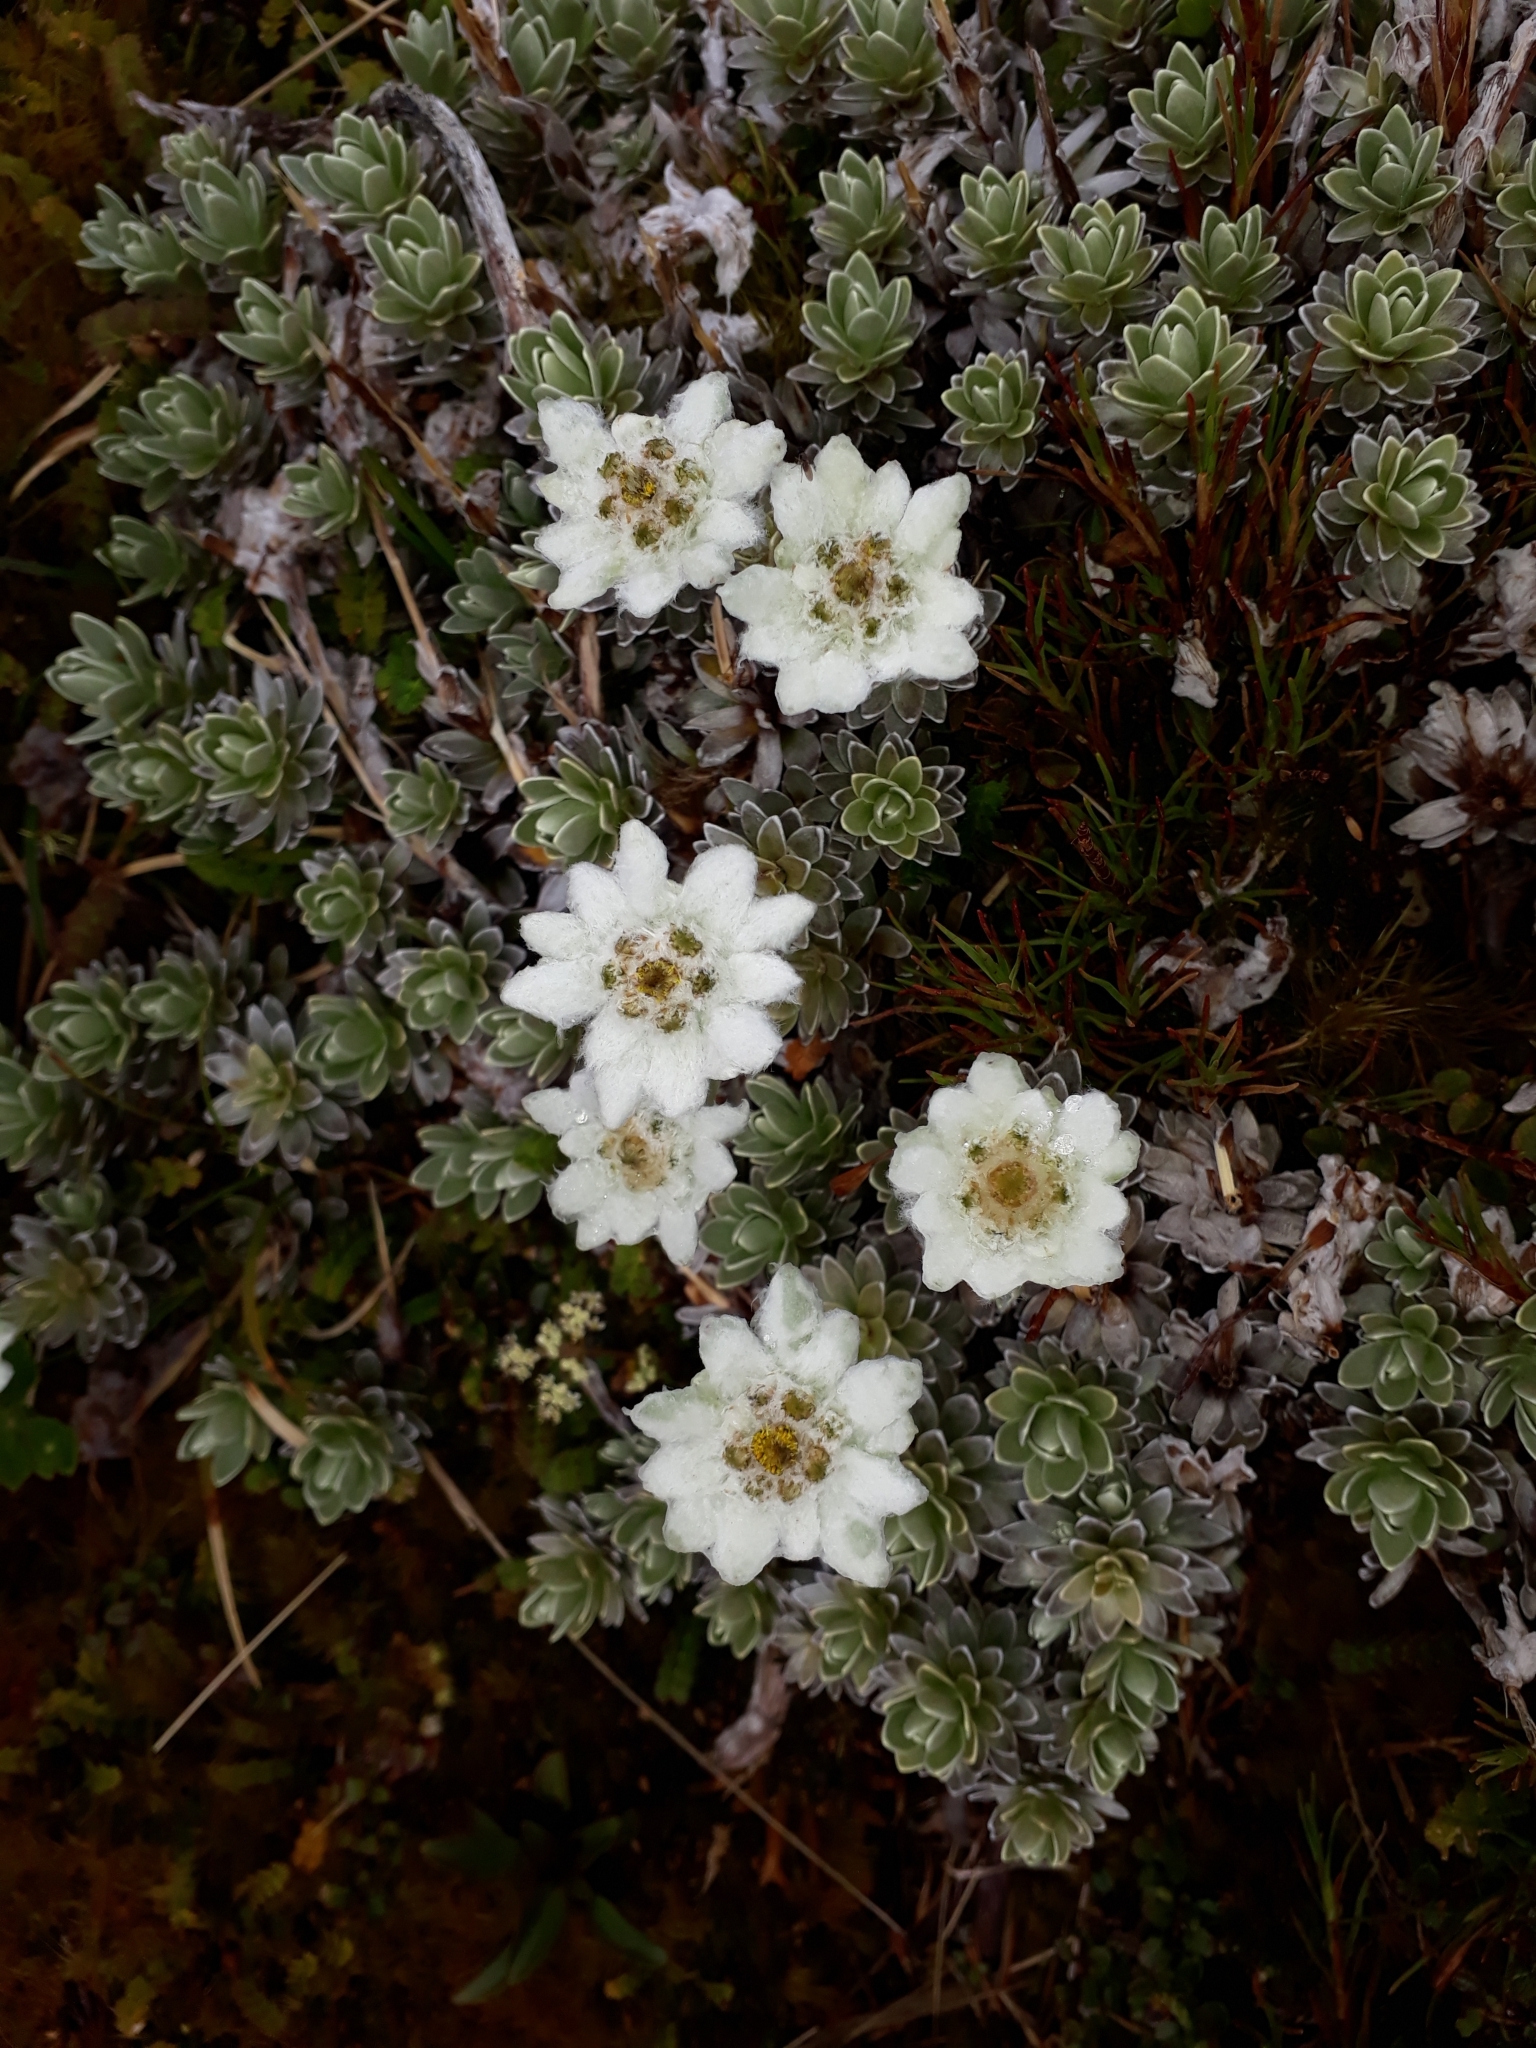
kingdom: Plantae
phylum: Tracheophyta
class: Magnoliopsida
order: Asterales
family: Asteraceae
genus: Leucogenes
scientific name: Leucogenes leontopodium
